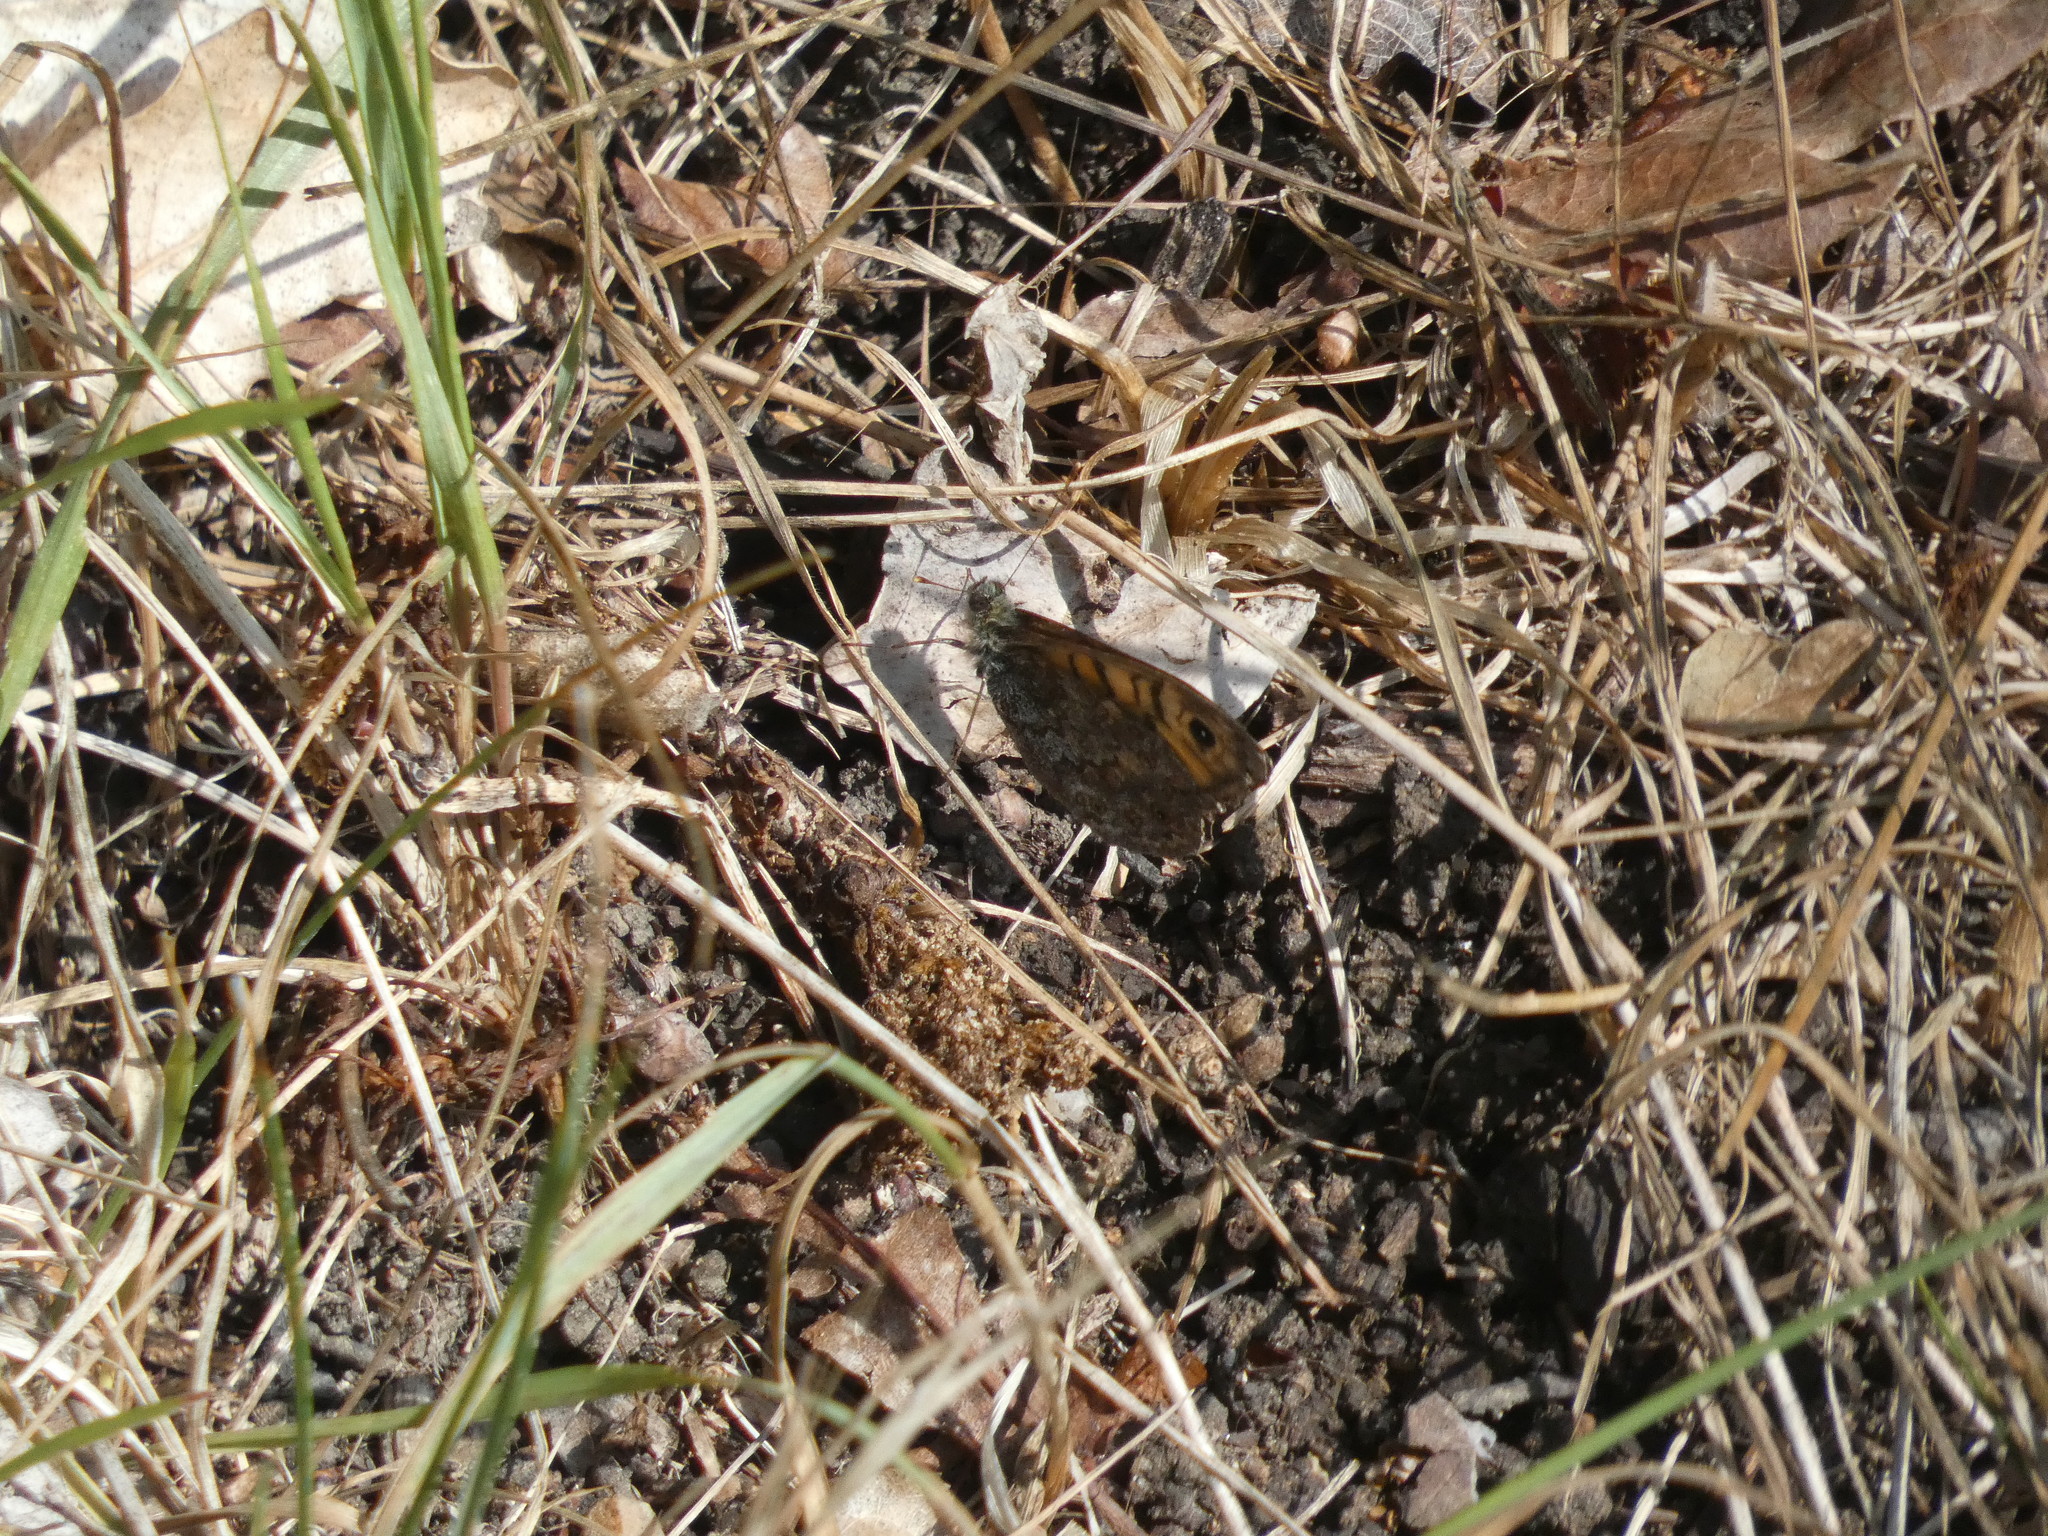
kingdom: Animalia
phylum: Arthropoda
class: Insecta
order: Lepidoptera
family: Nymphalidae
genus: Pararge
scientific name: Pararge Lasiommata megera
